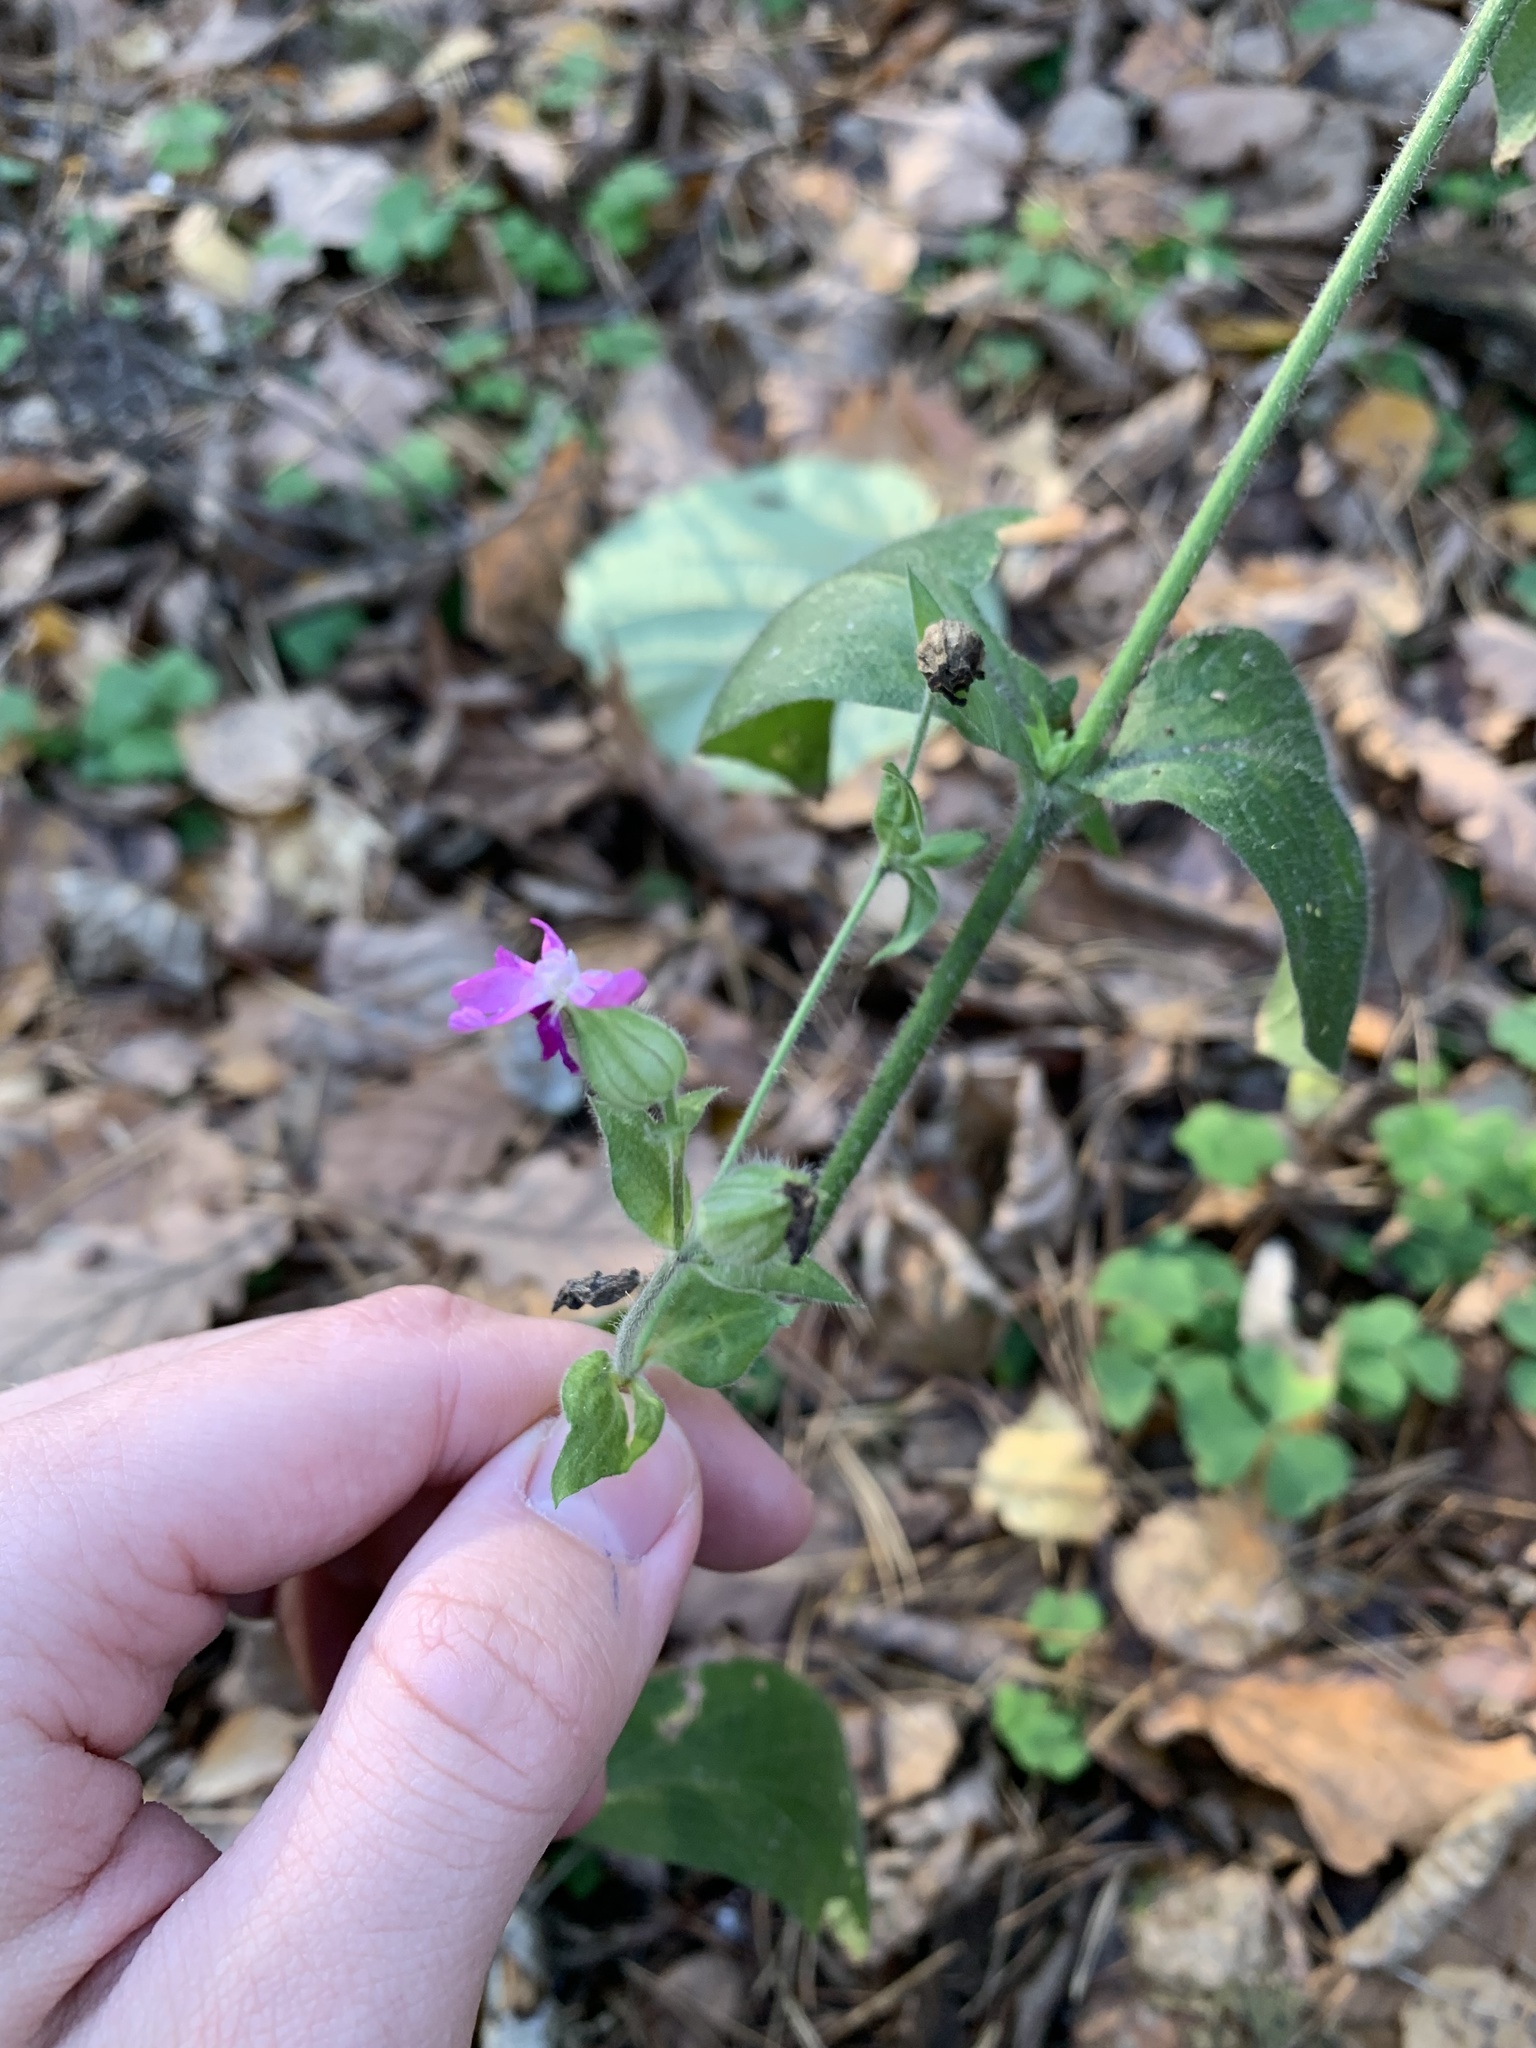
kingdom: Plantae
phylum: Tracheophyta
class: Magnoliopsida
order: Caryophyllales
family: Caryophyllaceae
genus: Silene
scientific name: Silene dioica
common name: Red campion
